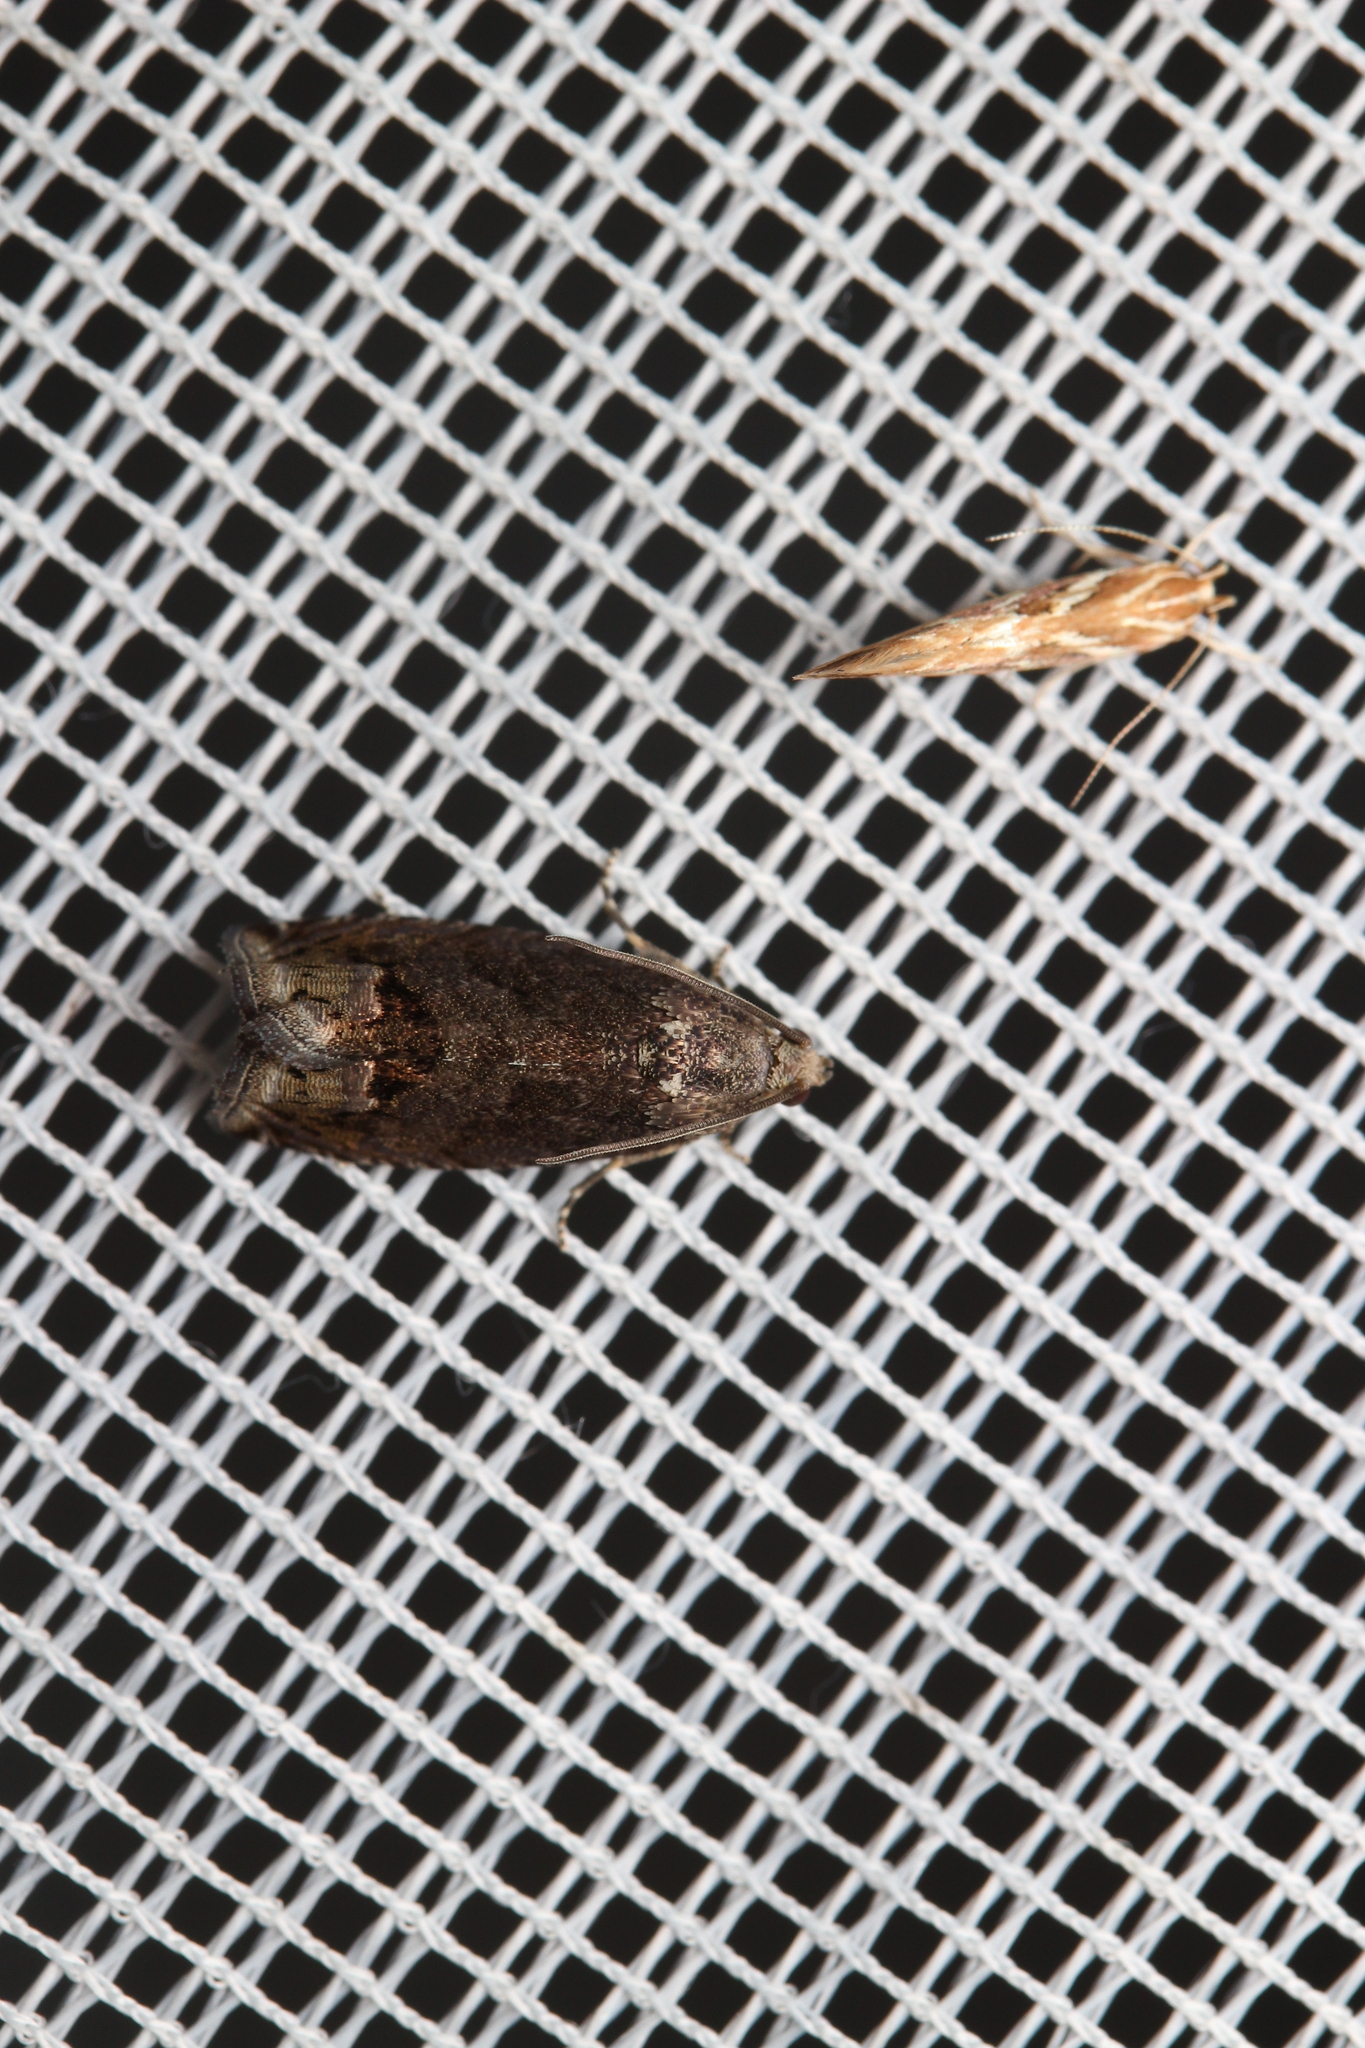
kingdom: Animalia
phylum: Arthropoda
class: Insecta
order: Lepidoptera
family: Cosmopterigidae
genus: Pyroderces
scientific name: Pyroderces argyrogrammos
